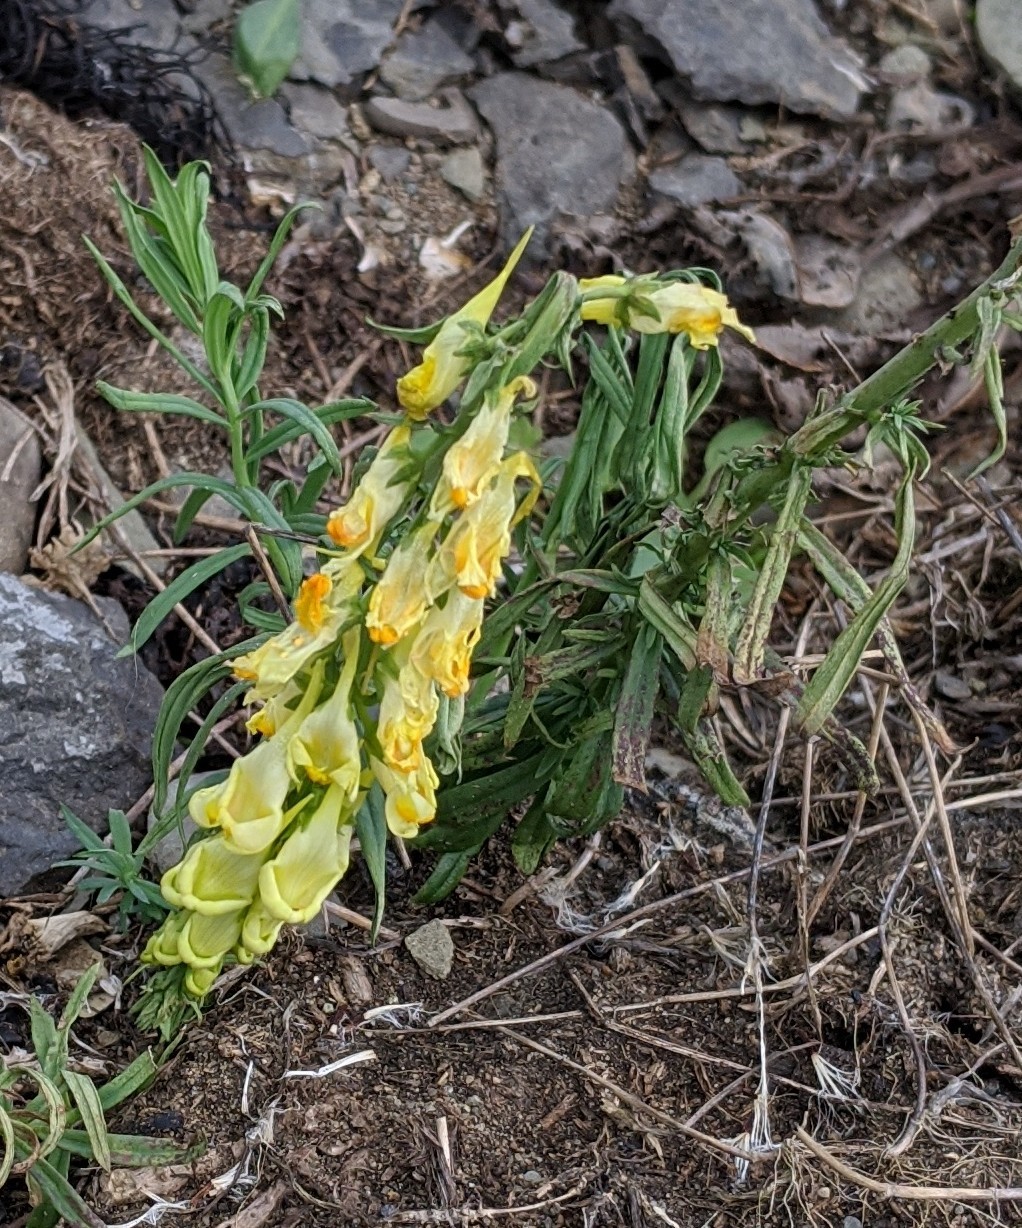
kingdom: Plantae
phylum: Tracheophyta
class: Magnoliopsida
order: Lamiales
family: Plantaginaceae
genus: Linaria
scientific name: Linaria vulgaris
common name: Butter and eggs
